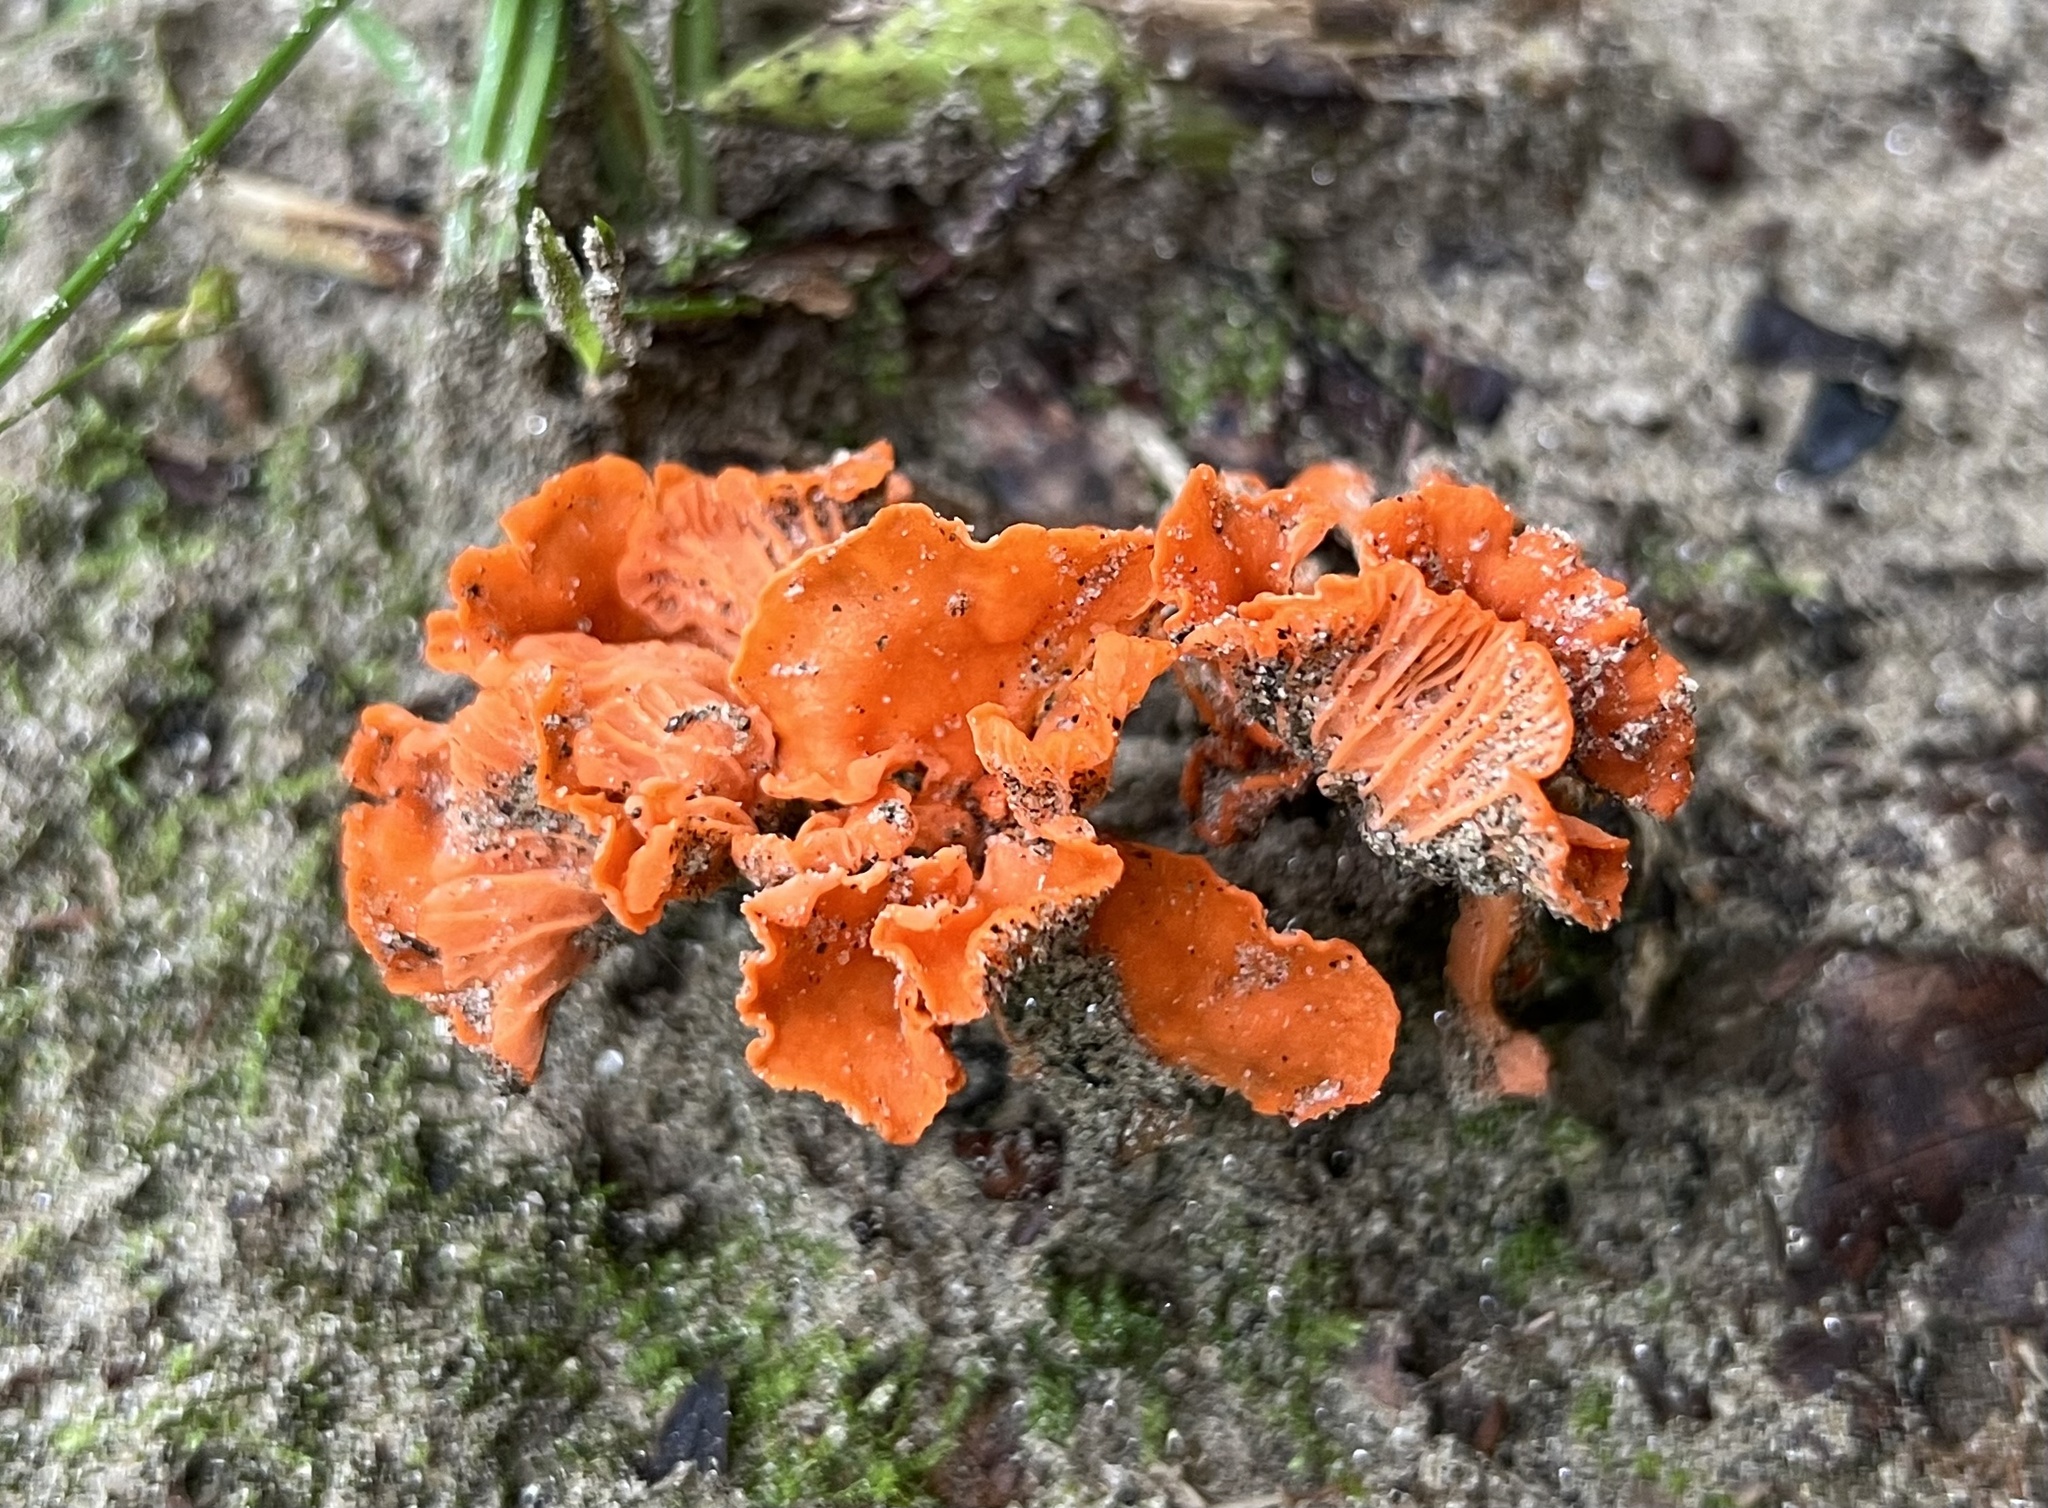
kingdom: Fungi
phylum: Basidiomycota
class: Agaricomycetes
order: Cantharellales
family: Hydnaceae
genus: Cantharellus
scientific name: Cantharellus cinnabarinus
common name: Cinnabar chanterelle
